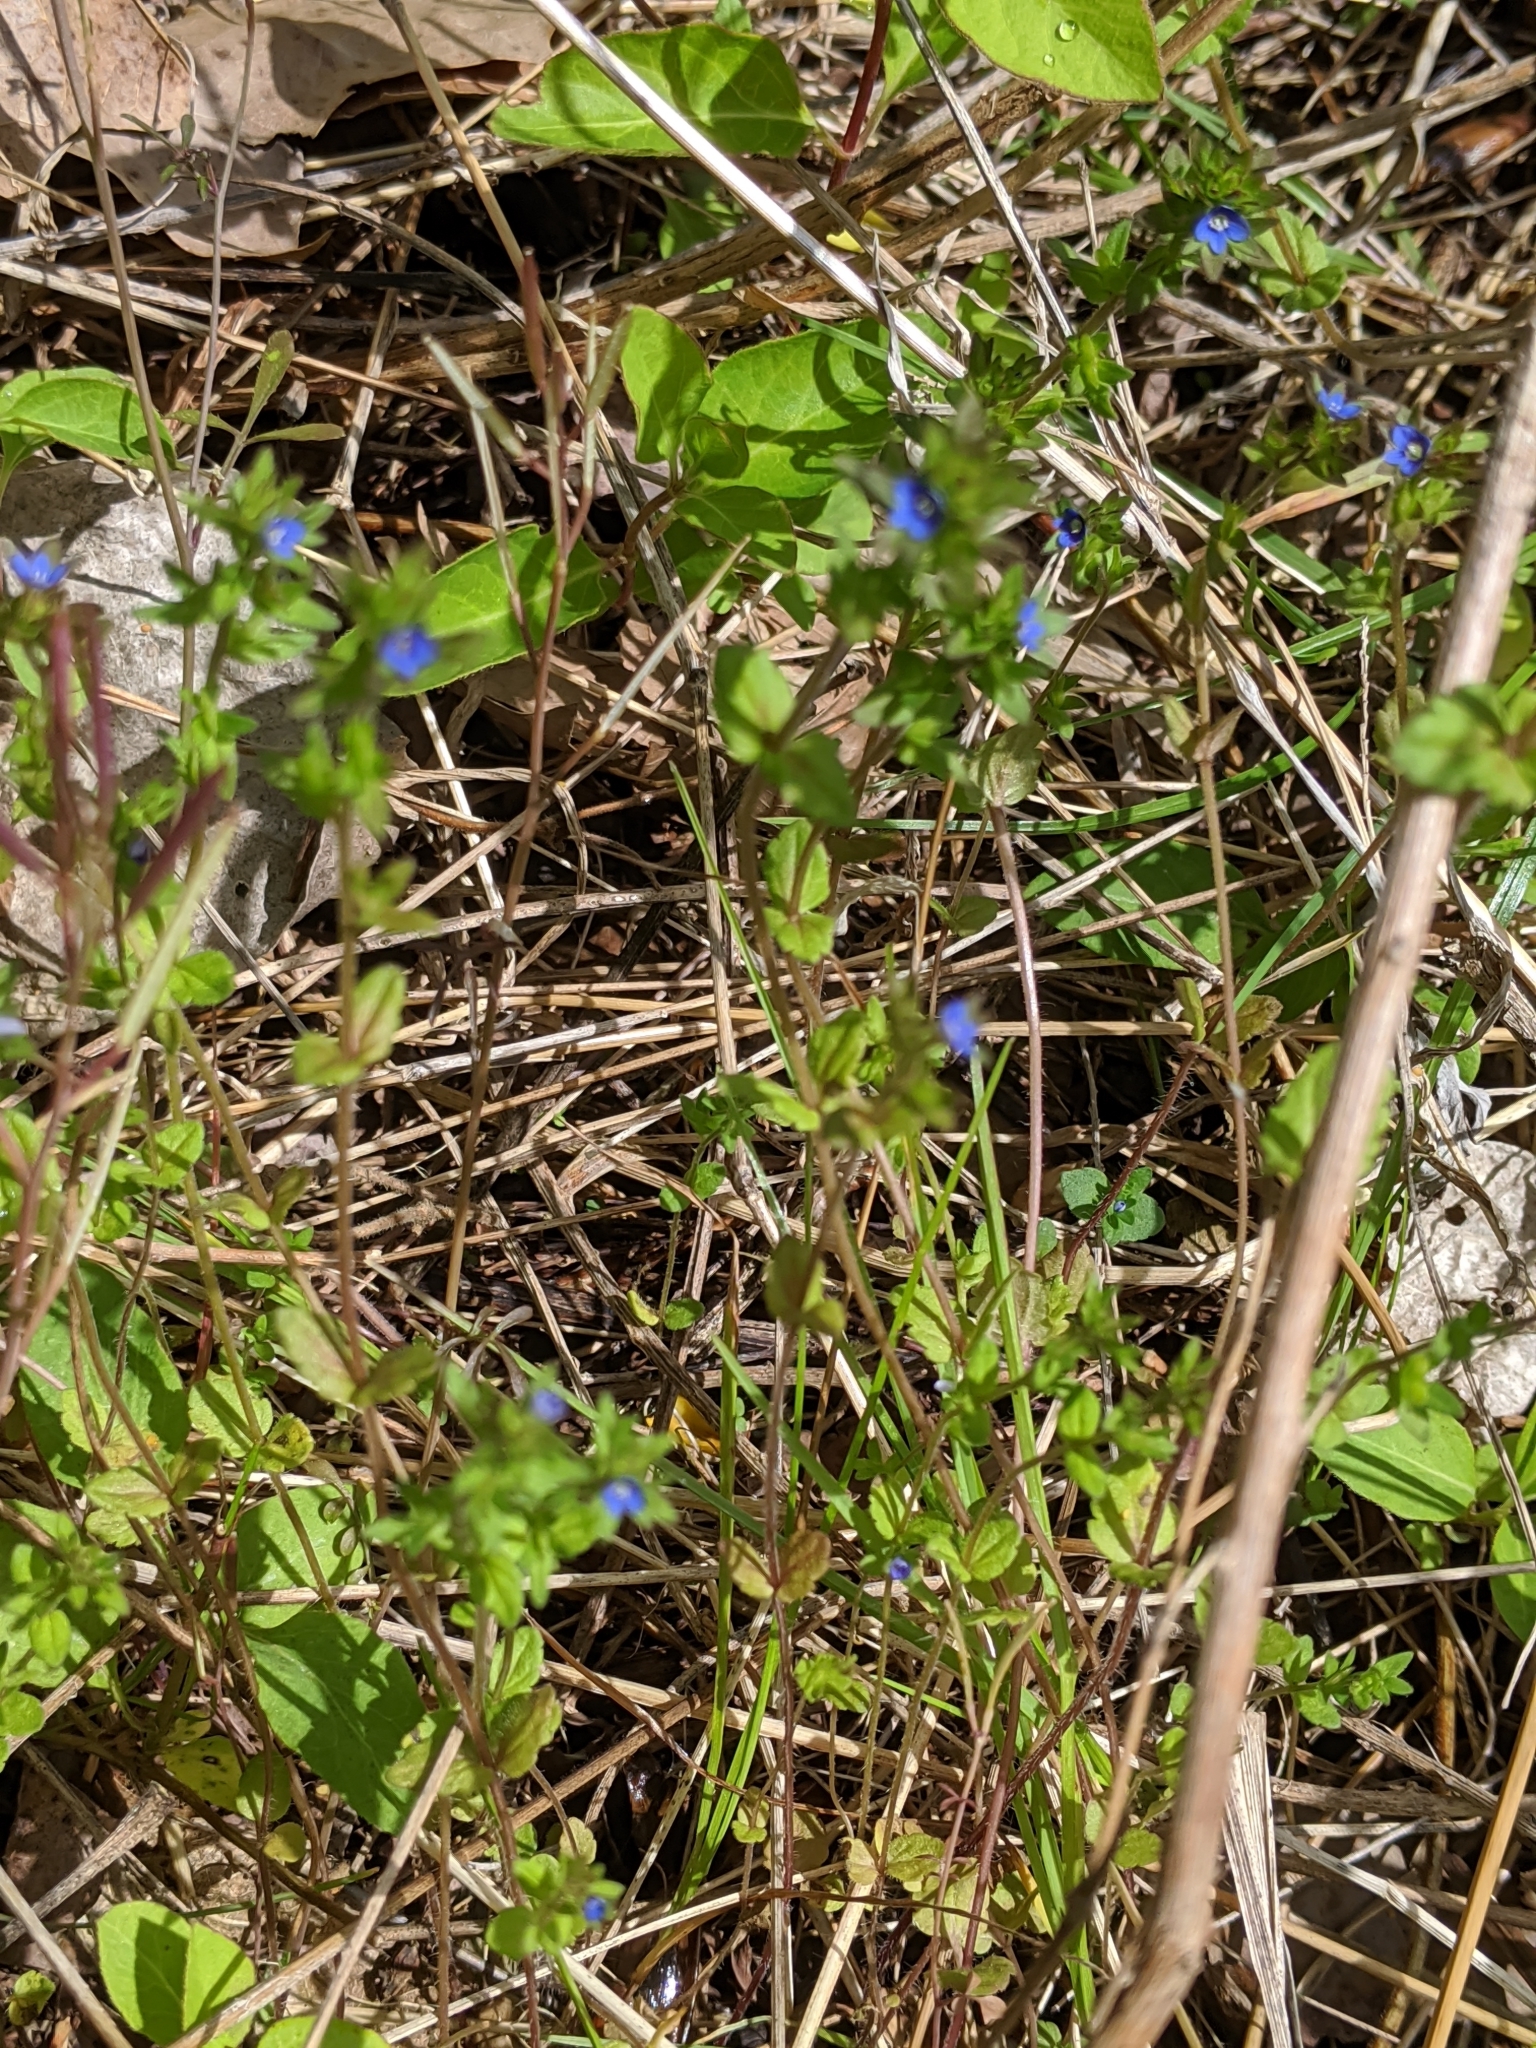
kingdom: Plantae
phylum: Tracheophyta
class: Magnoliopsida
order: Lamiales
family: Plantaginaceae
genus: Veronica
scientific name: Veronica arvensis
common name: Corn speedwell
